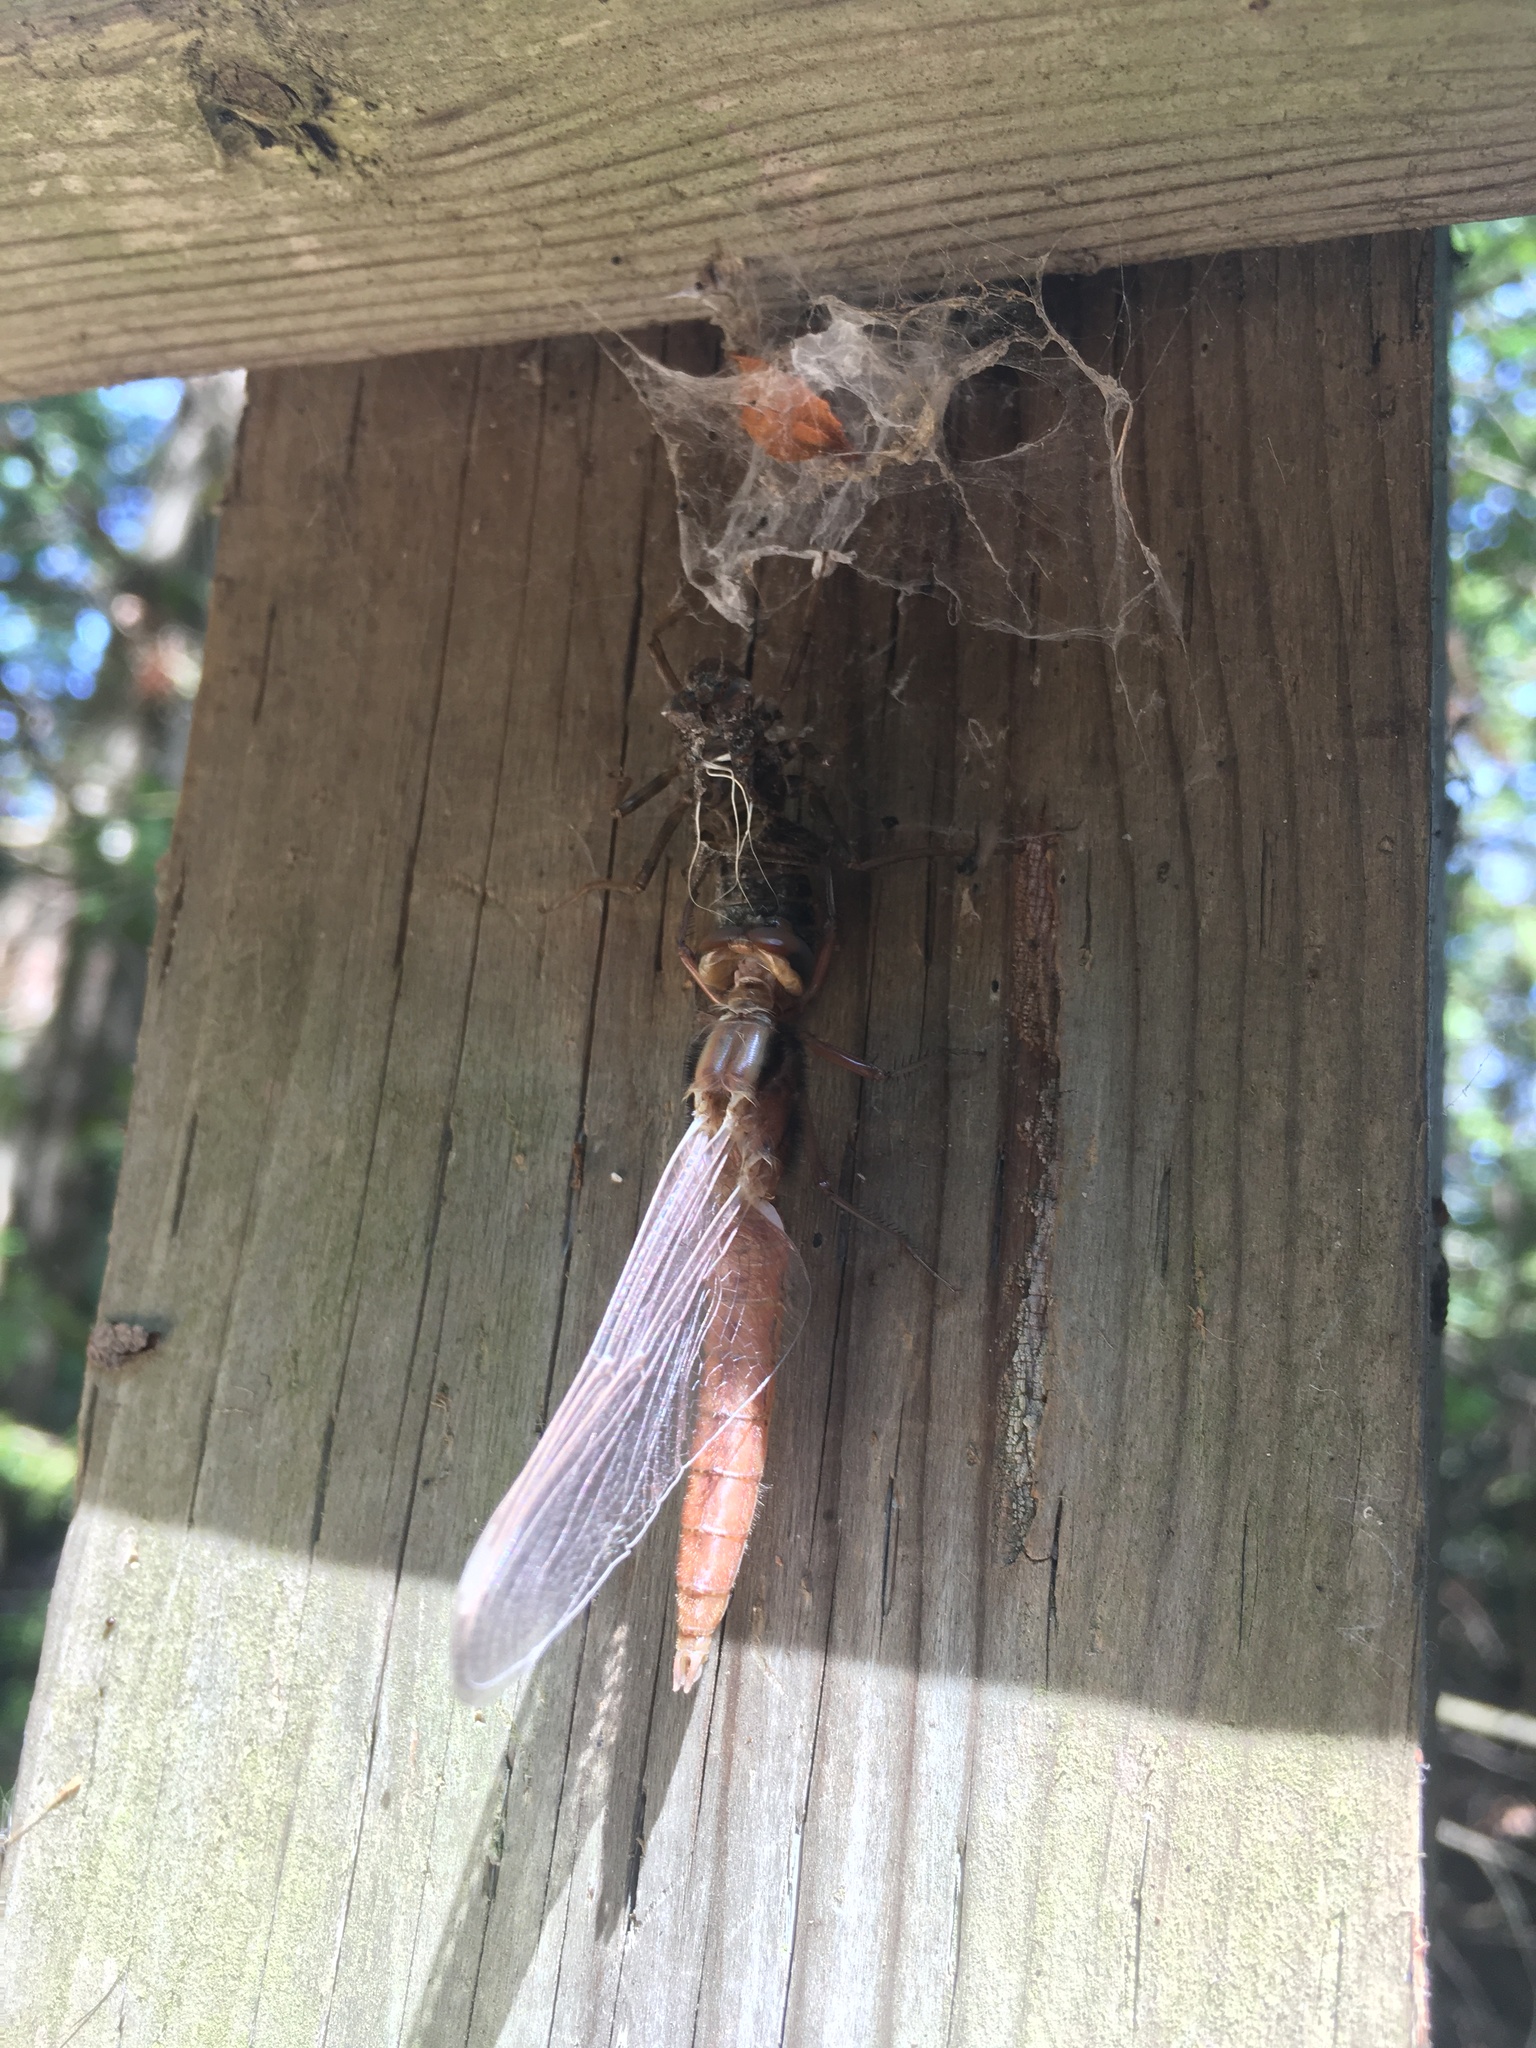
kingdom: Animalia
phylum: Arthropoda
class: Insecta
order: Odonata
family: Libellulidae
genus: Ladona
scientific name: Ladona julia
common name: Chalk-fronted corporal
